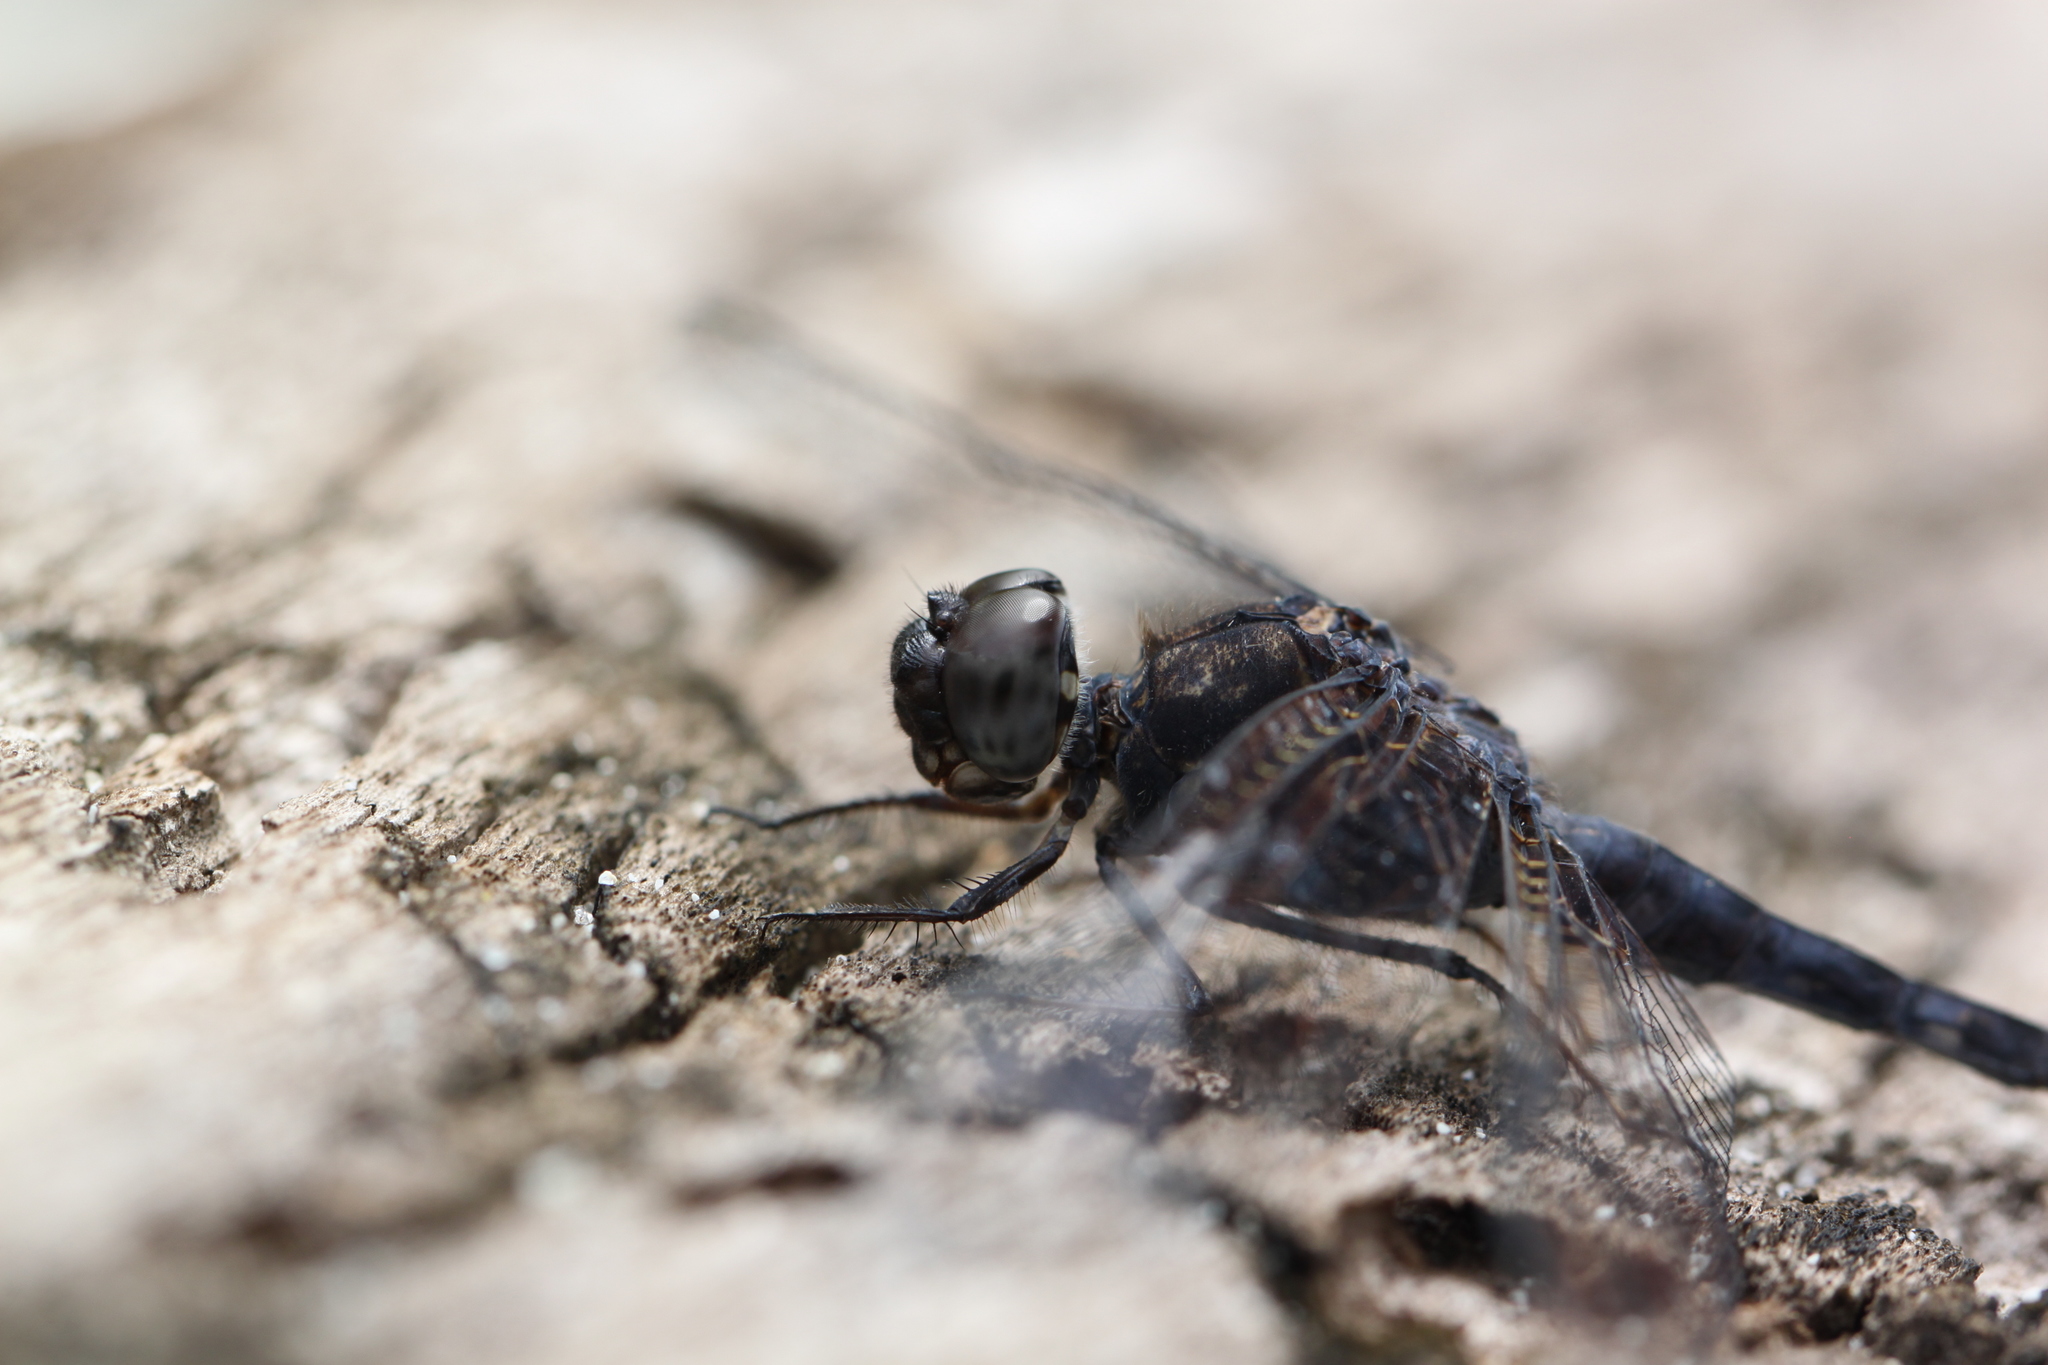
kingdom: Animalia
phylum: Arthropoda
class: Insecta
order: Odonata
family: Libellulidae
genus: Bradinopyga
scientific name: Bradinopyga geminata
